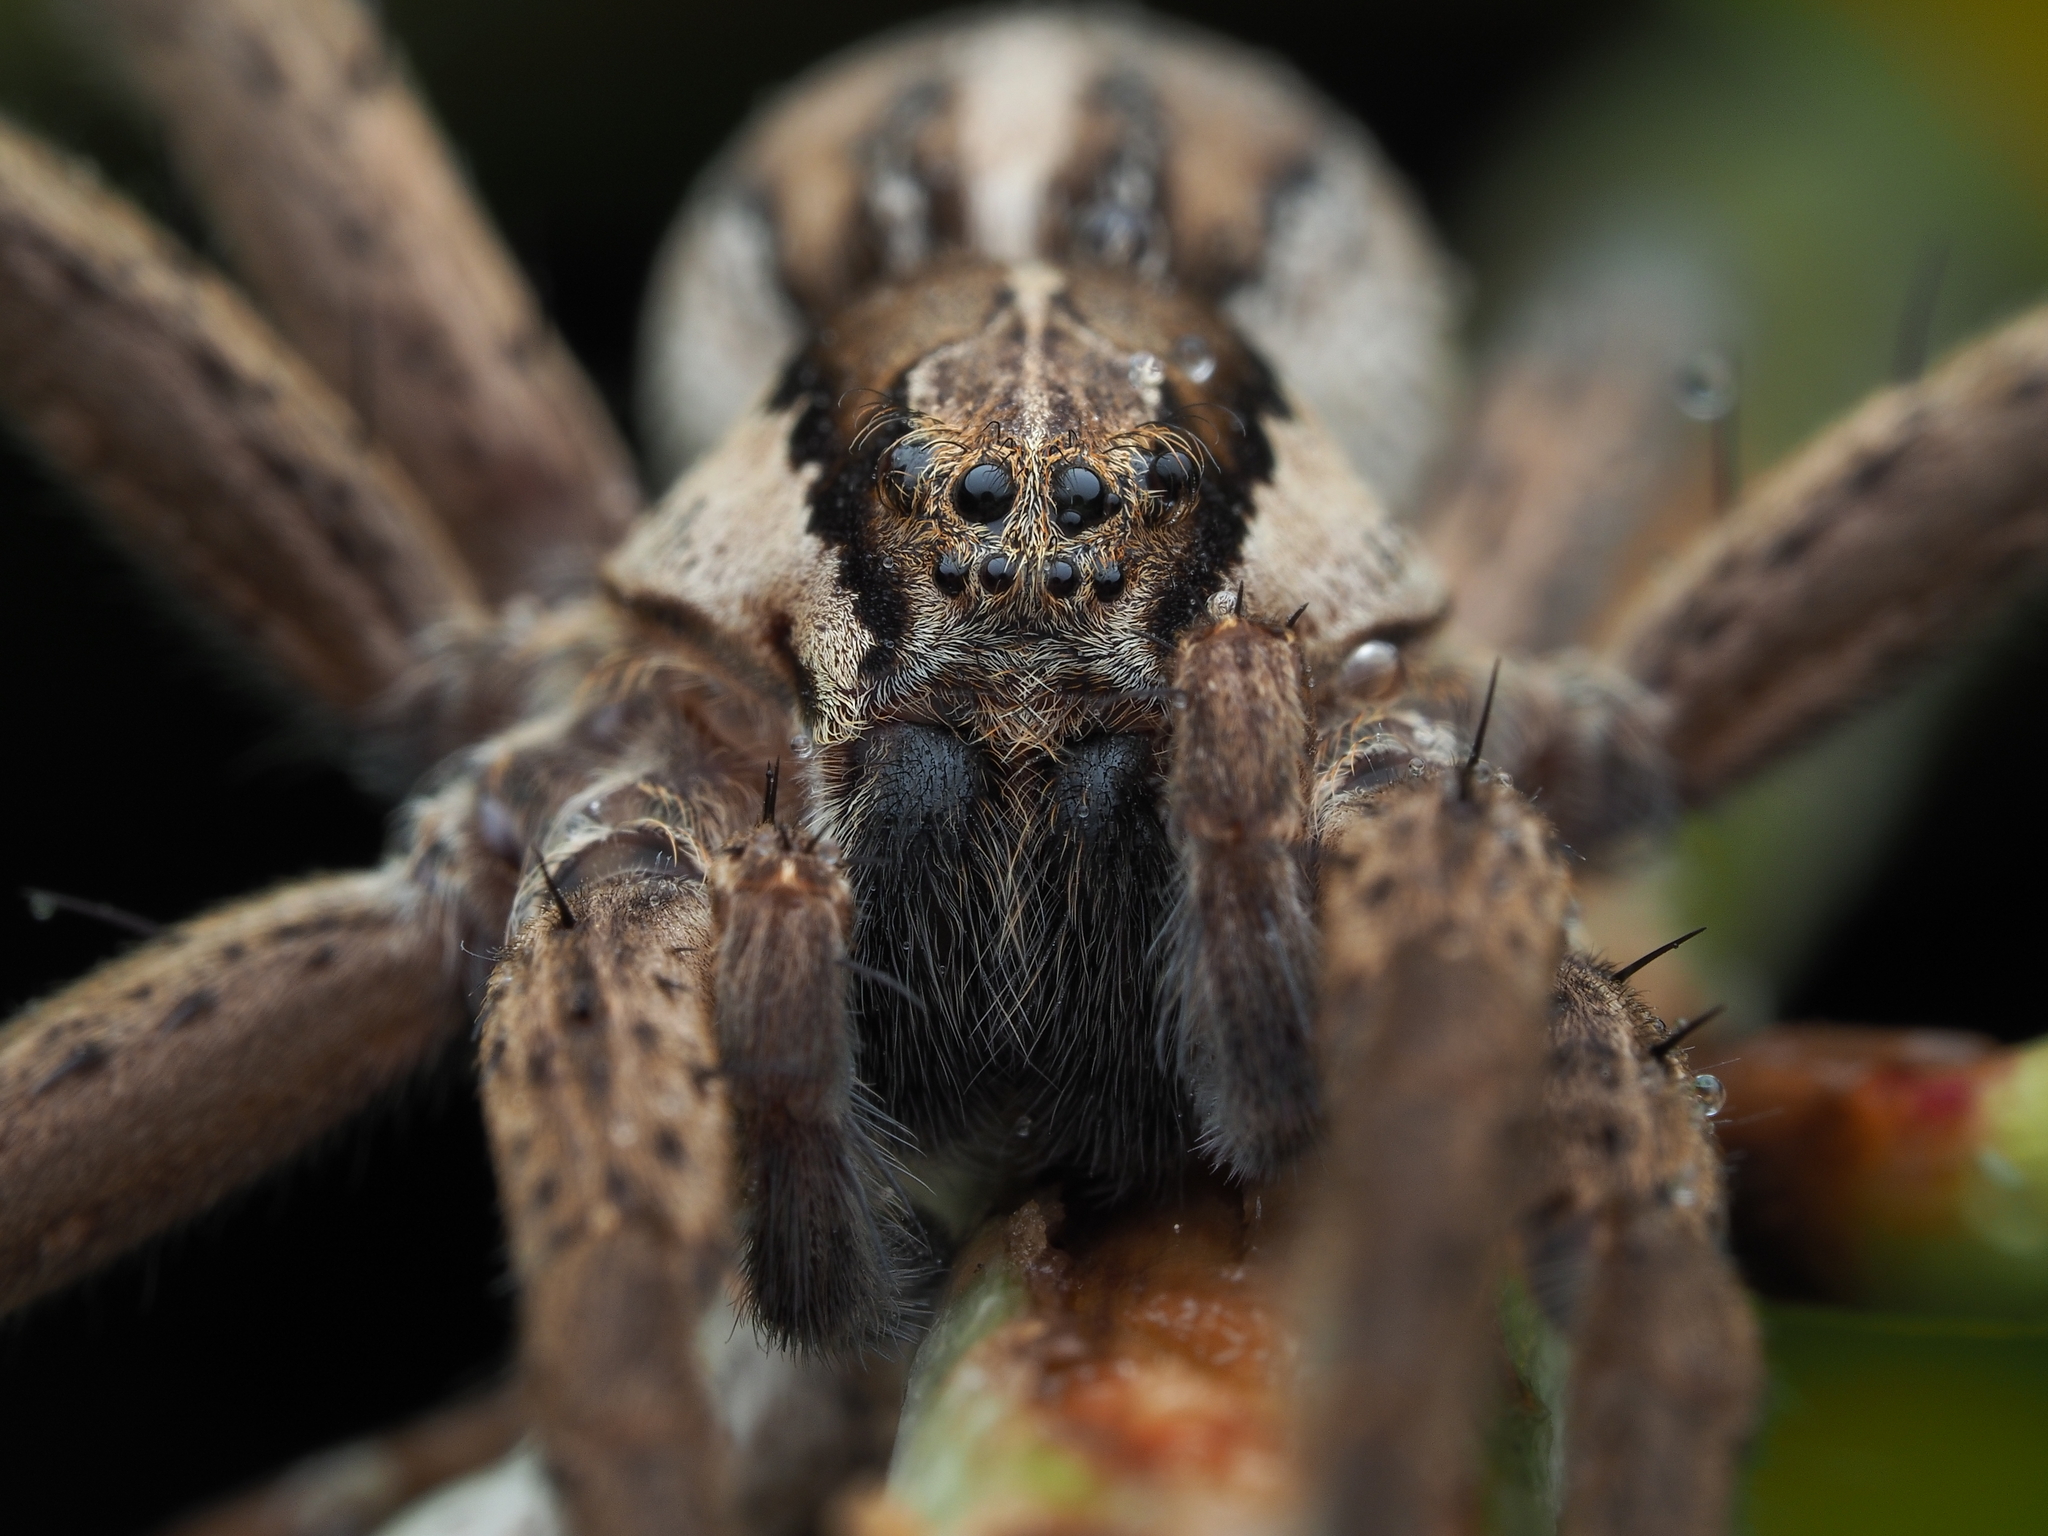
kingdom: Animalia
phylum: Arthropoda
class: Arachnida
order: Araneae
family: Pisauridae
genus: Dolomedes
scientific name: Dolomedes minor
